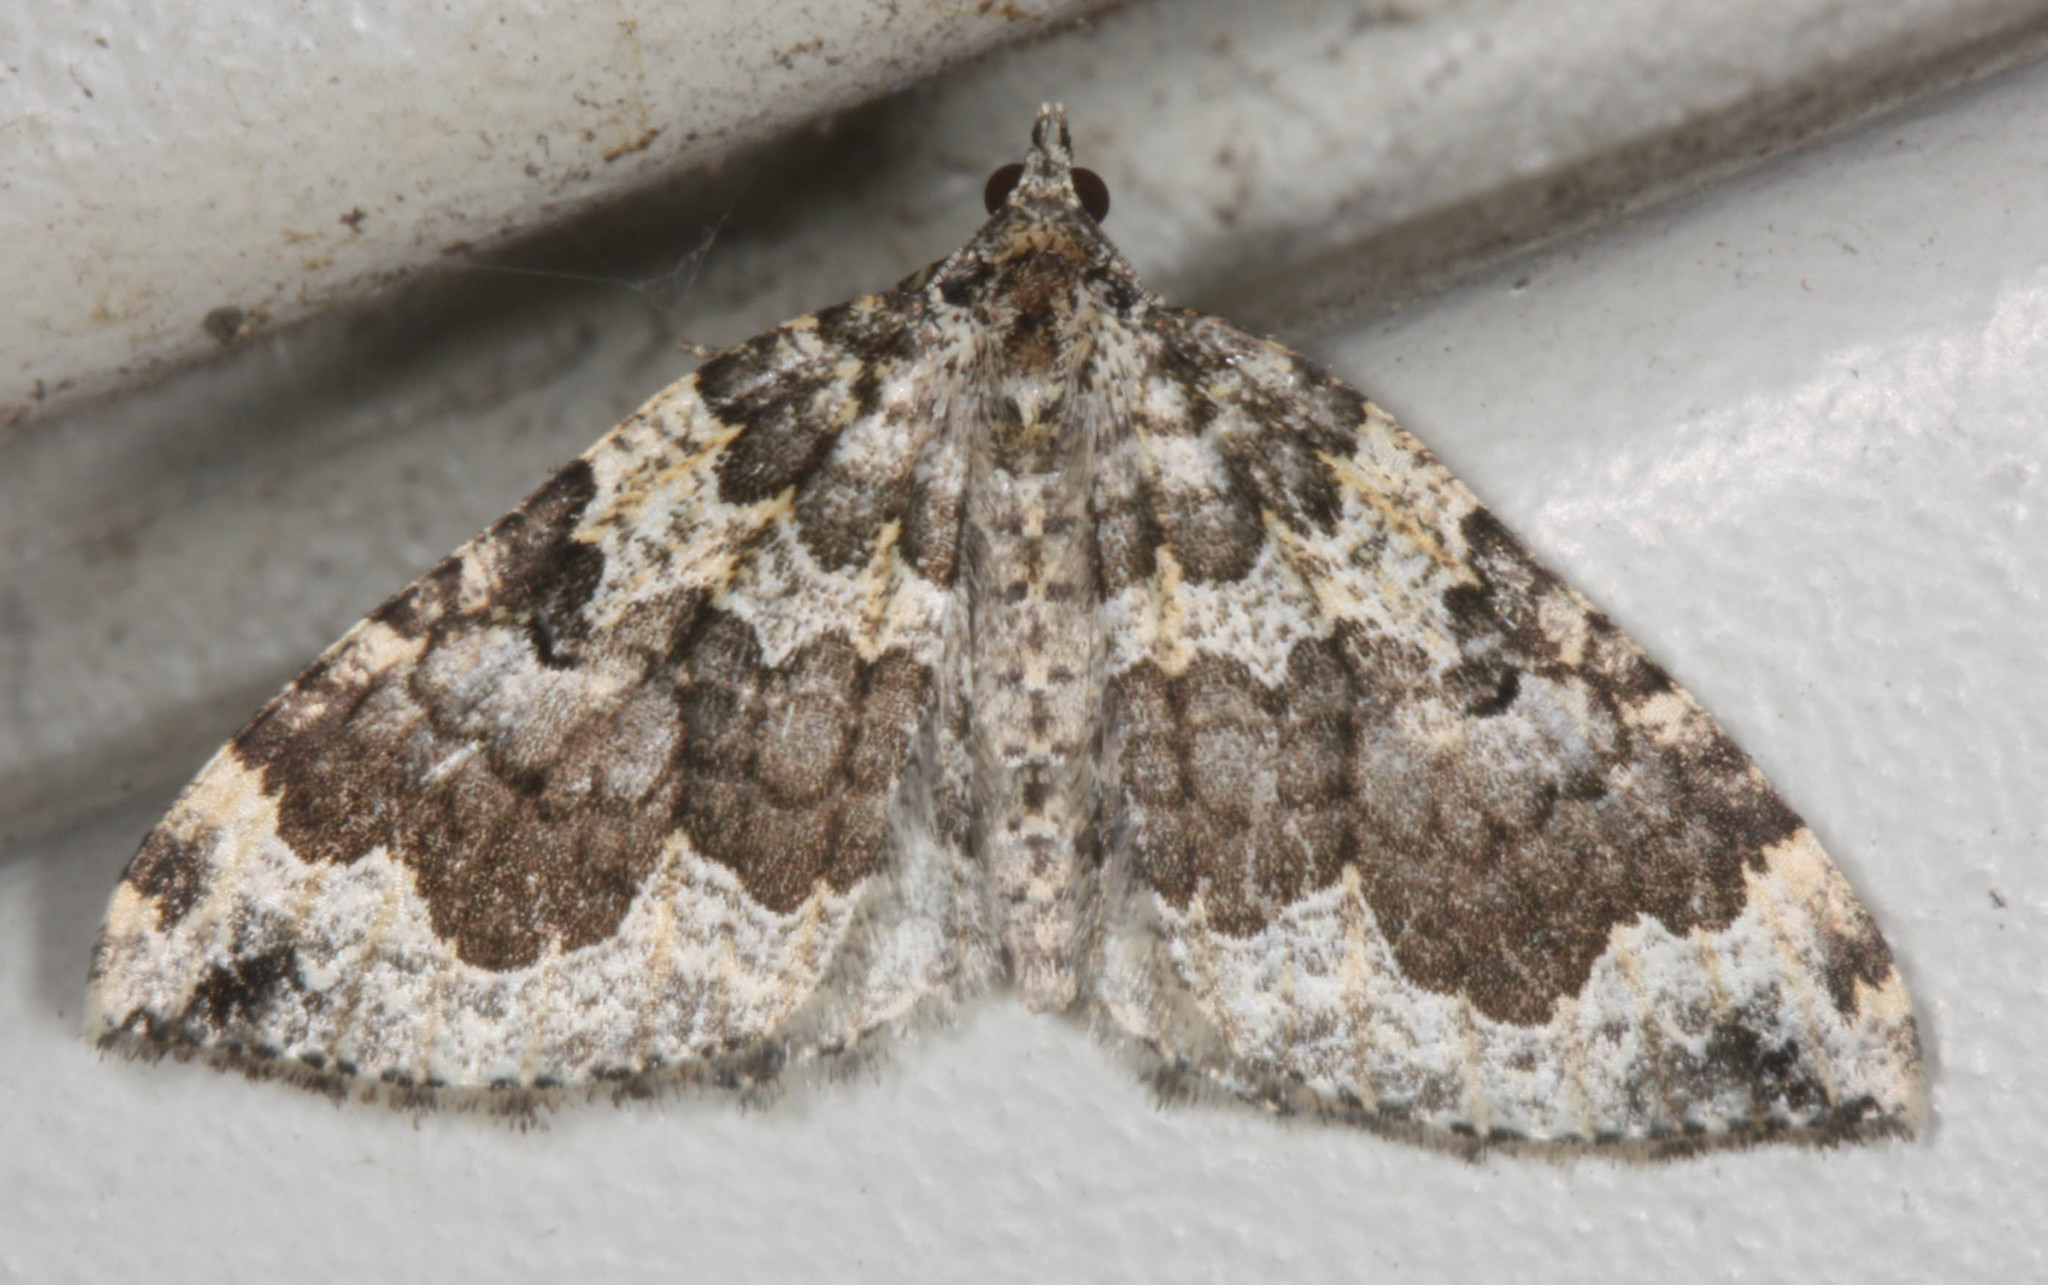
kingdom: Animalia
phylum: Arthropoda
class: Insecta
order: Lepidoptera
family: Geometridae
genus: Eustroma
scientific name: Eustroma semiatrata
